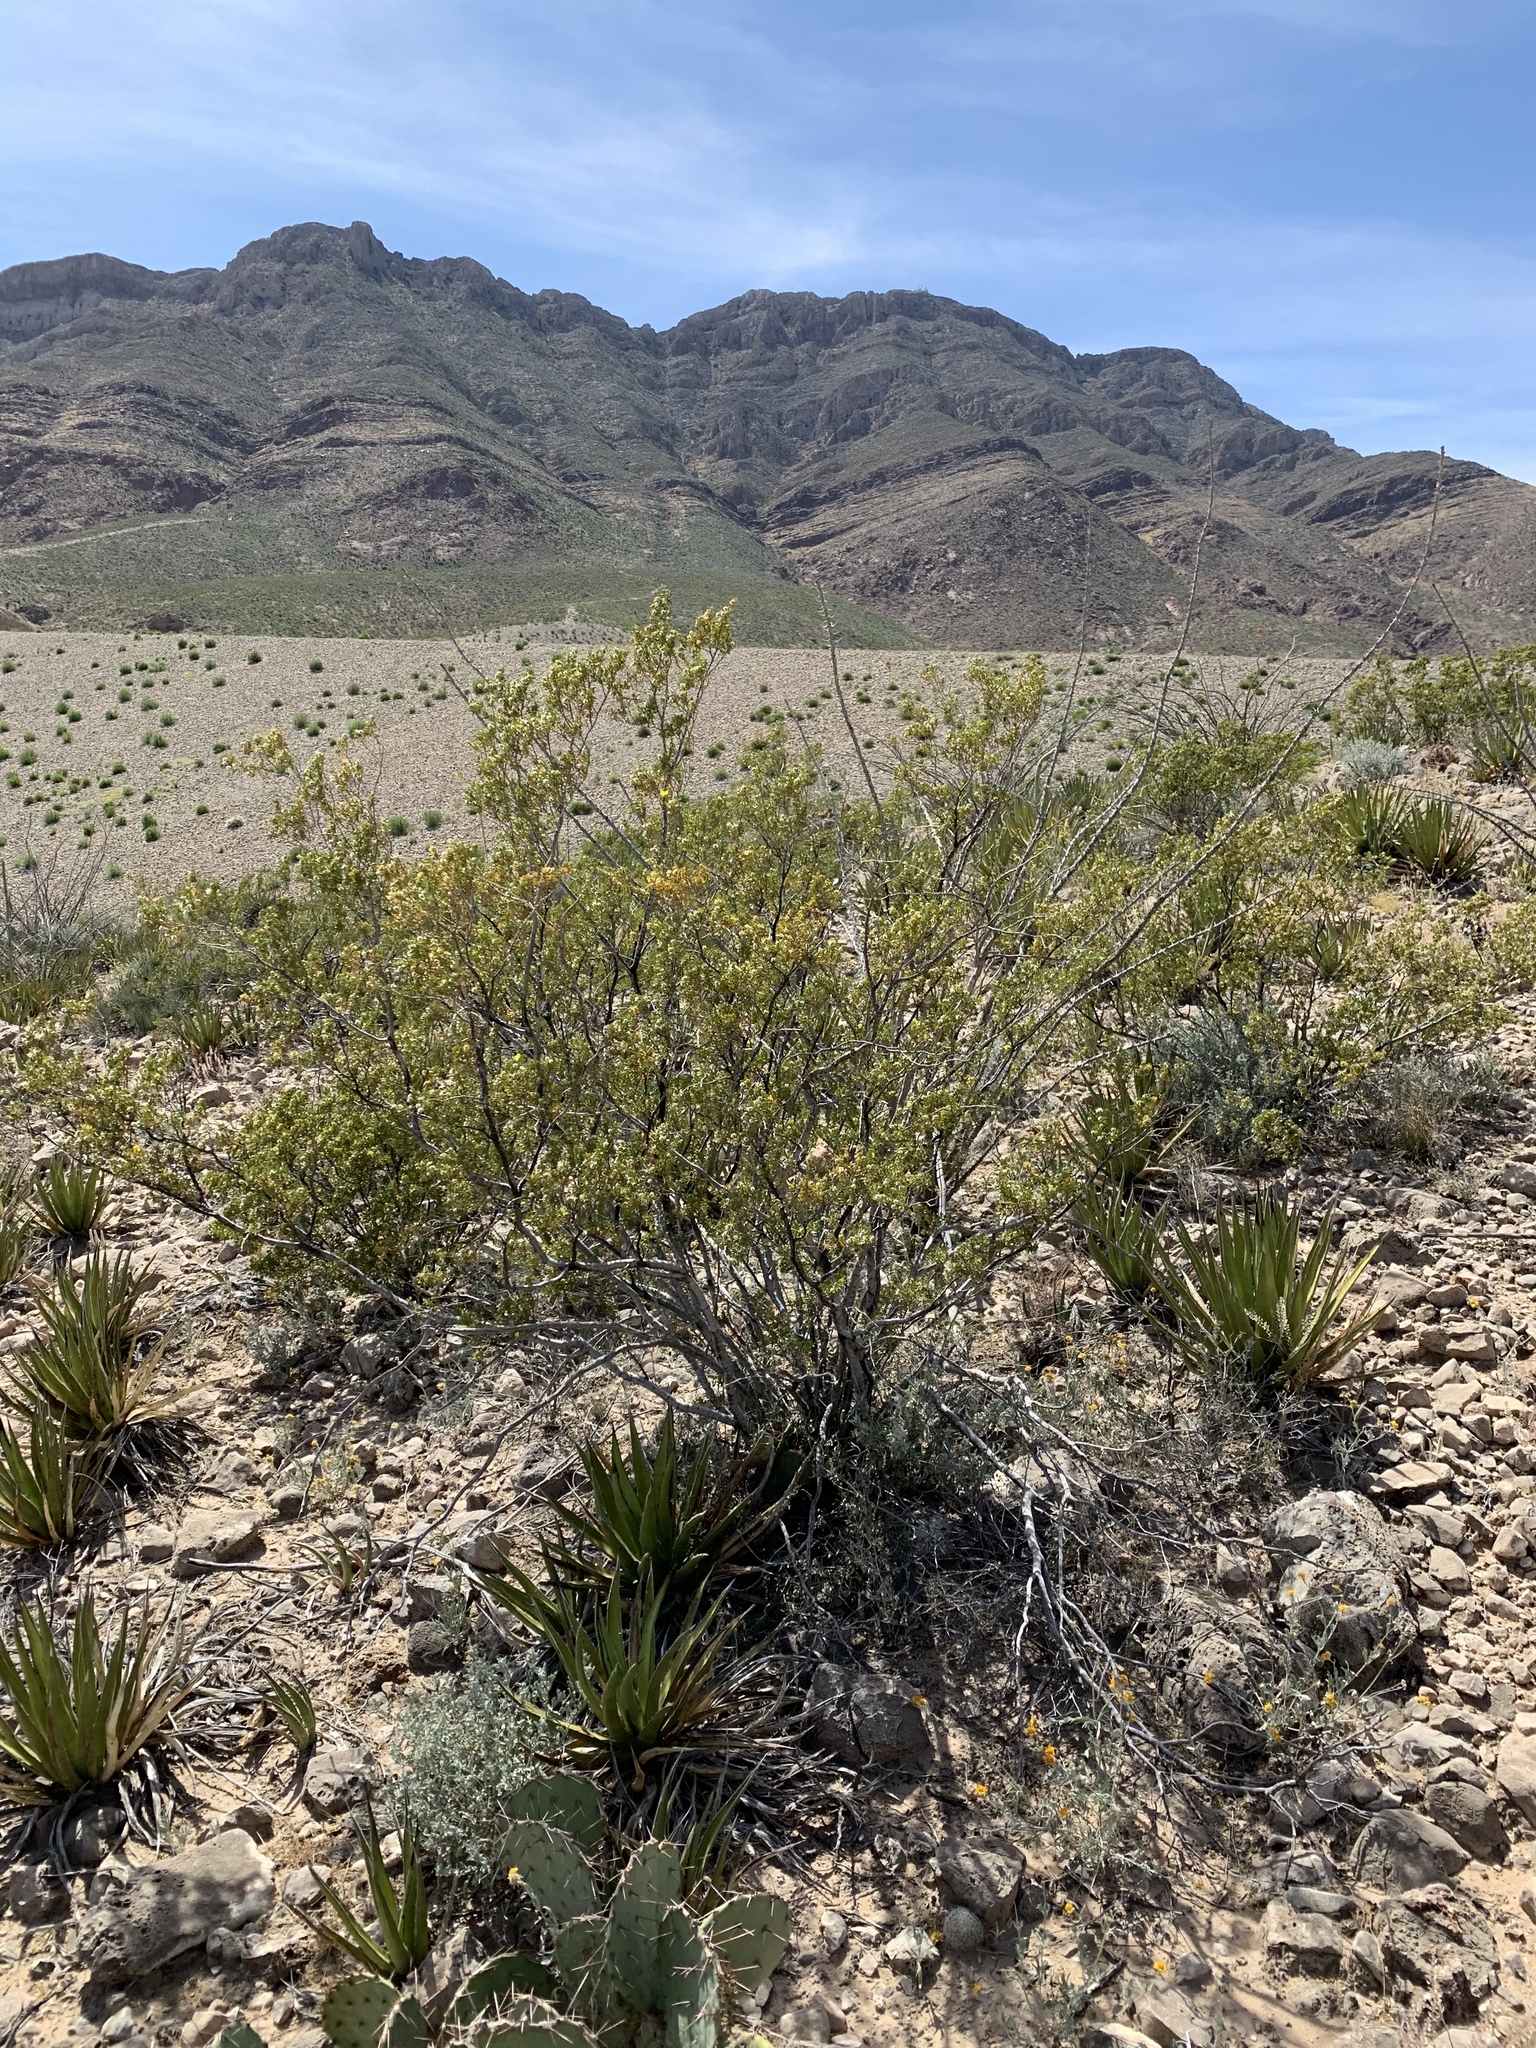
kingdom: Plantae
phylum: Tracheophyta
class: Magnoliopsida
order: Zygophyllales
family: Zygophyllaceae
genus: Larrea
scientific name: Larrea tridentata
